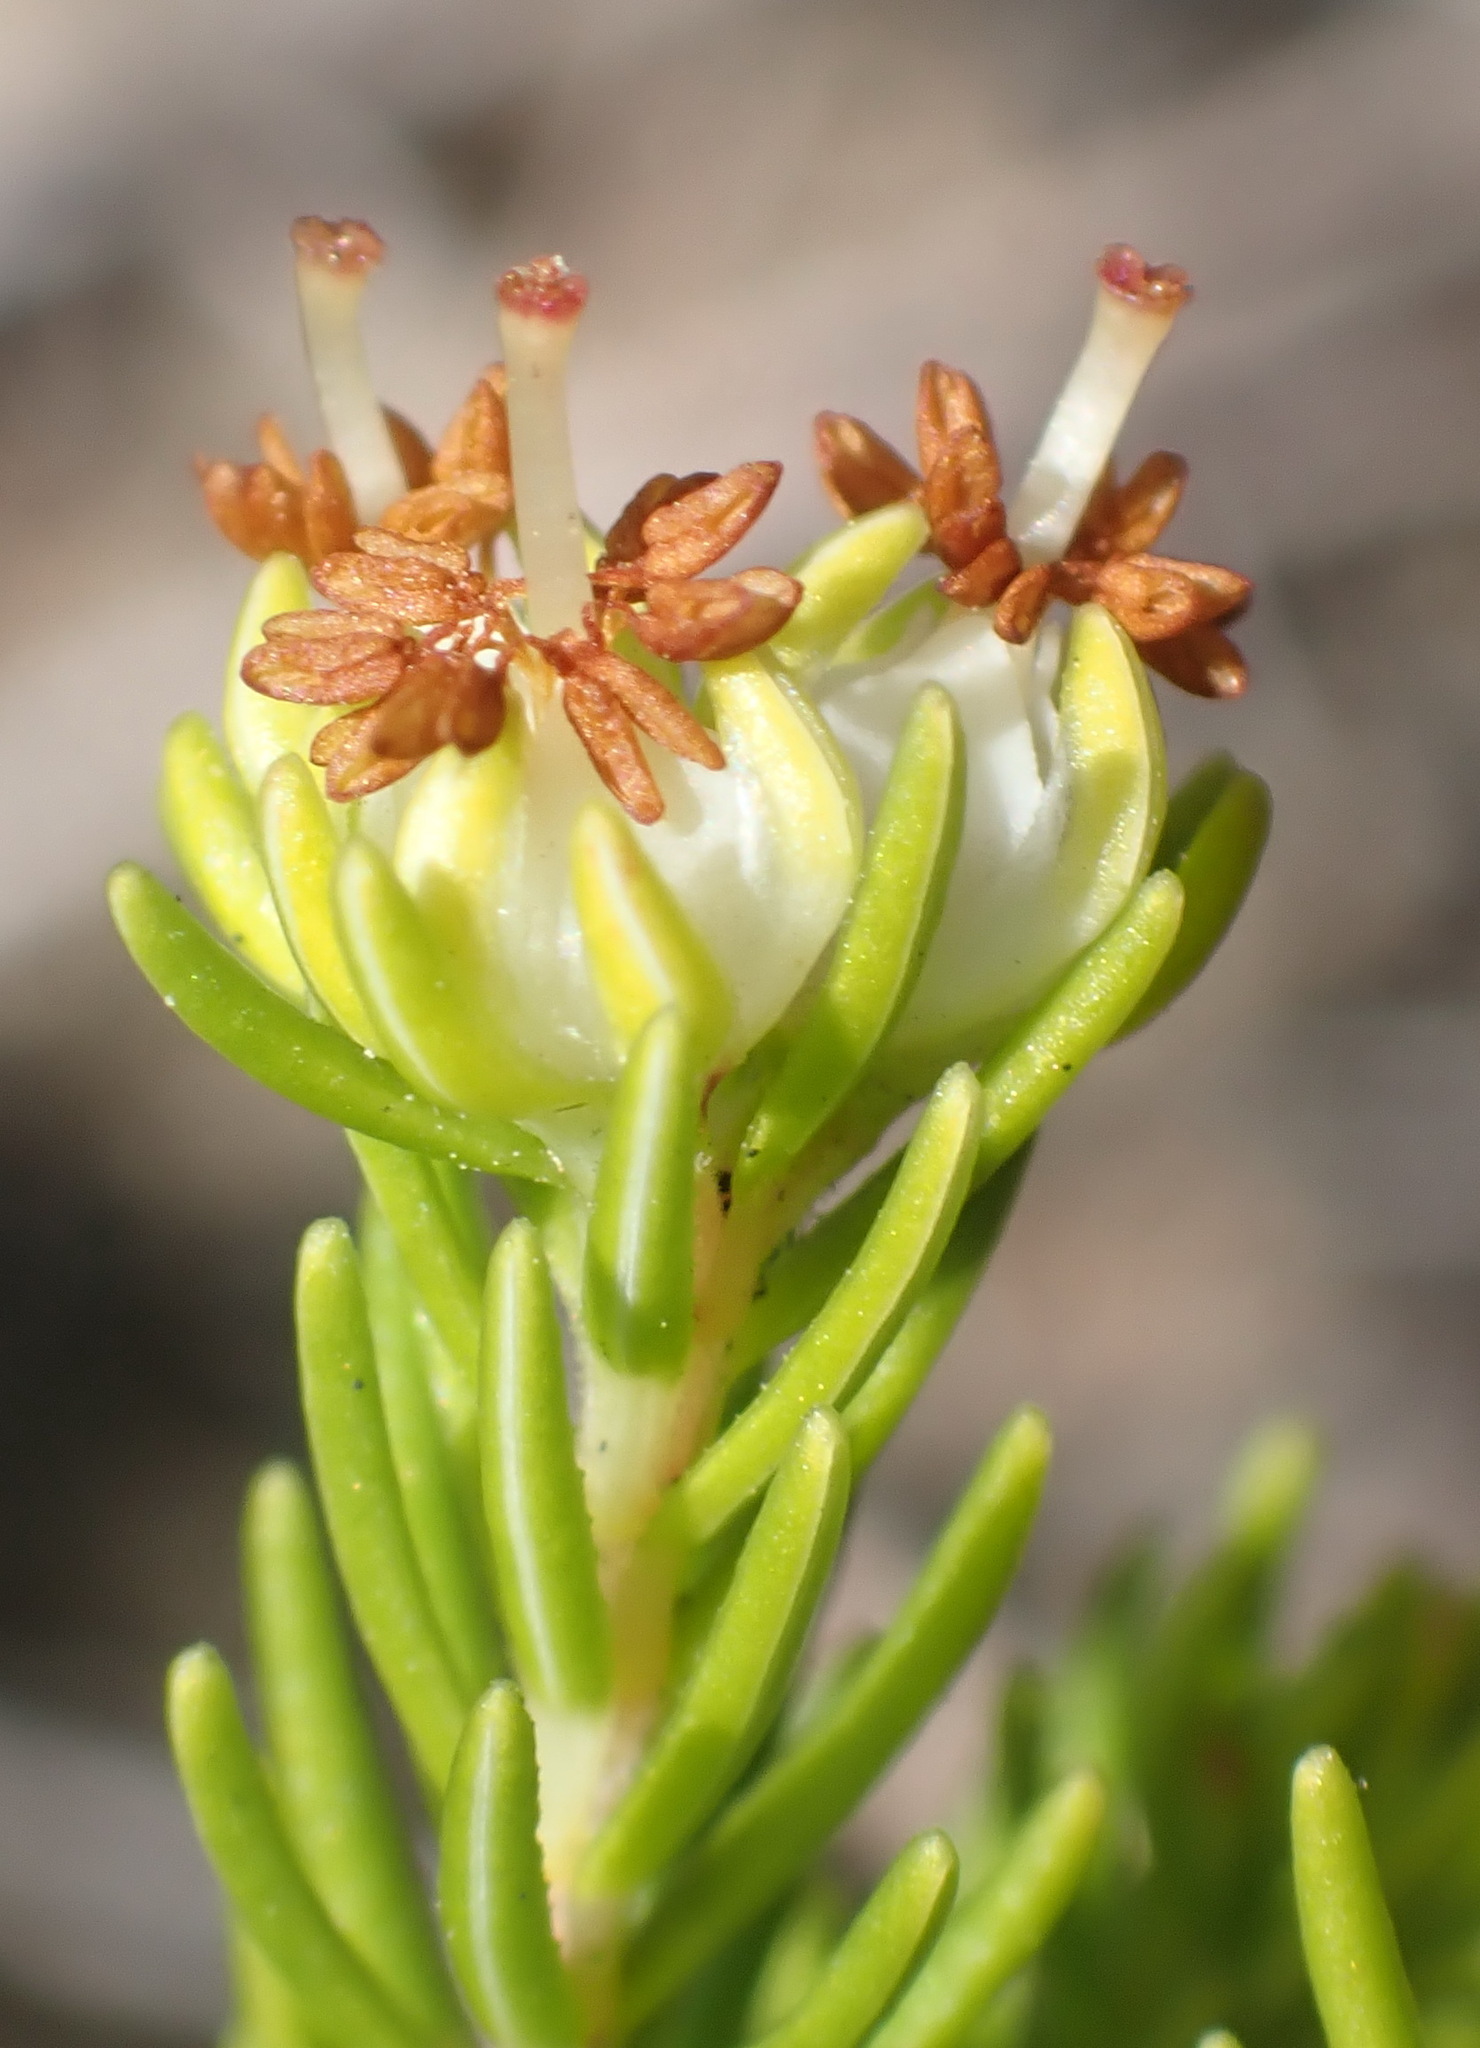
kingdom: Plantae
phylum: Tracheophyta
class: Magnoliopsida
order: Ericales
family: Ericaceae
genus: Erica
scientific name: Erica glumiflora
